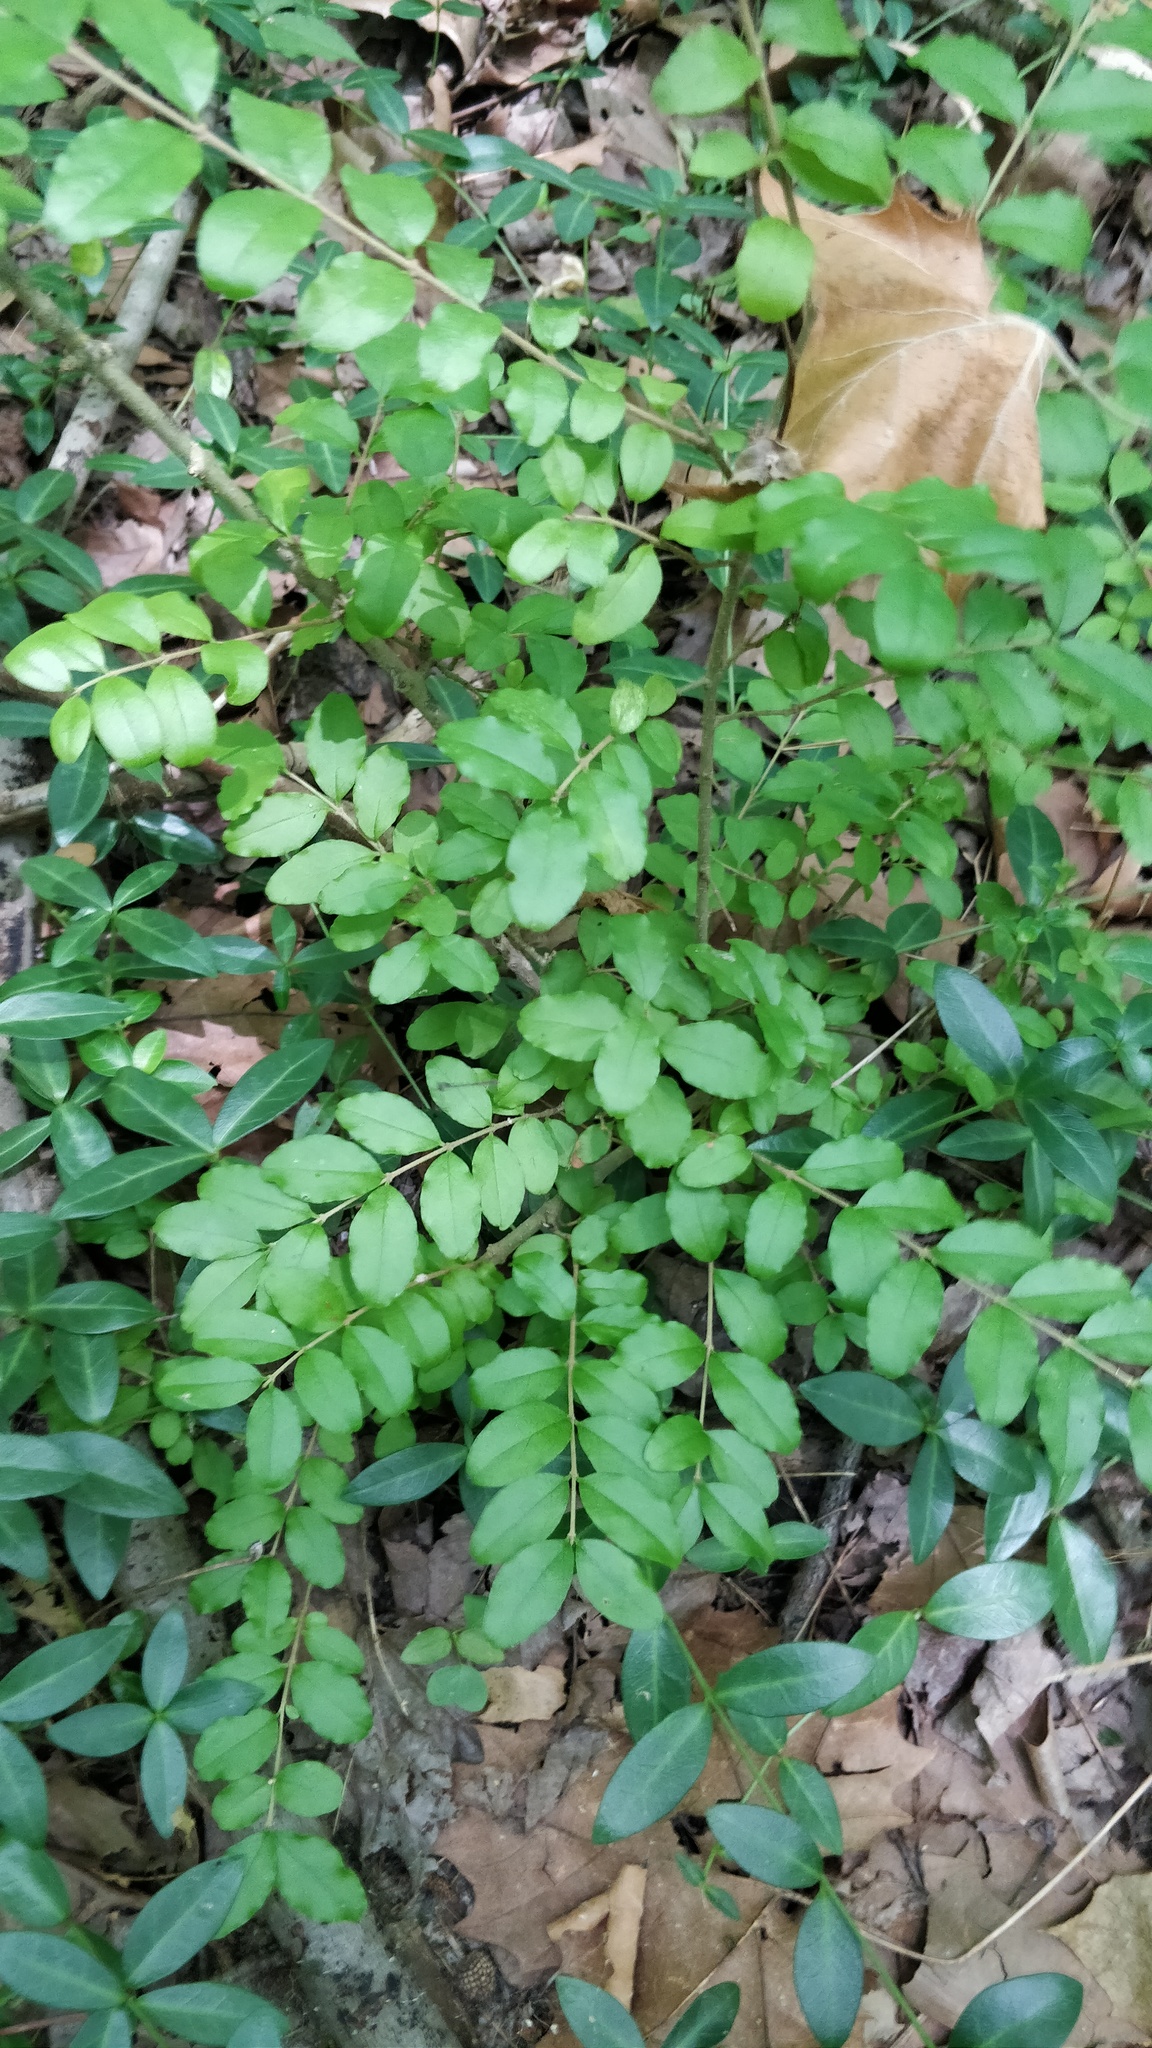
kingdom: Plantae
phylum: Tracheophyta
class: Magnoliopsida
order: Lamiales
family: Oleaceae
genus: Ligustrum
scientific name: Ligustrum sinense
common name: Chinese privet
